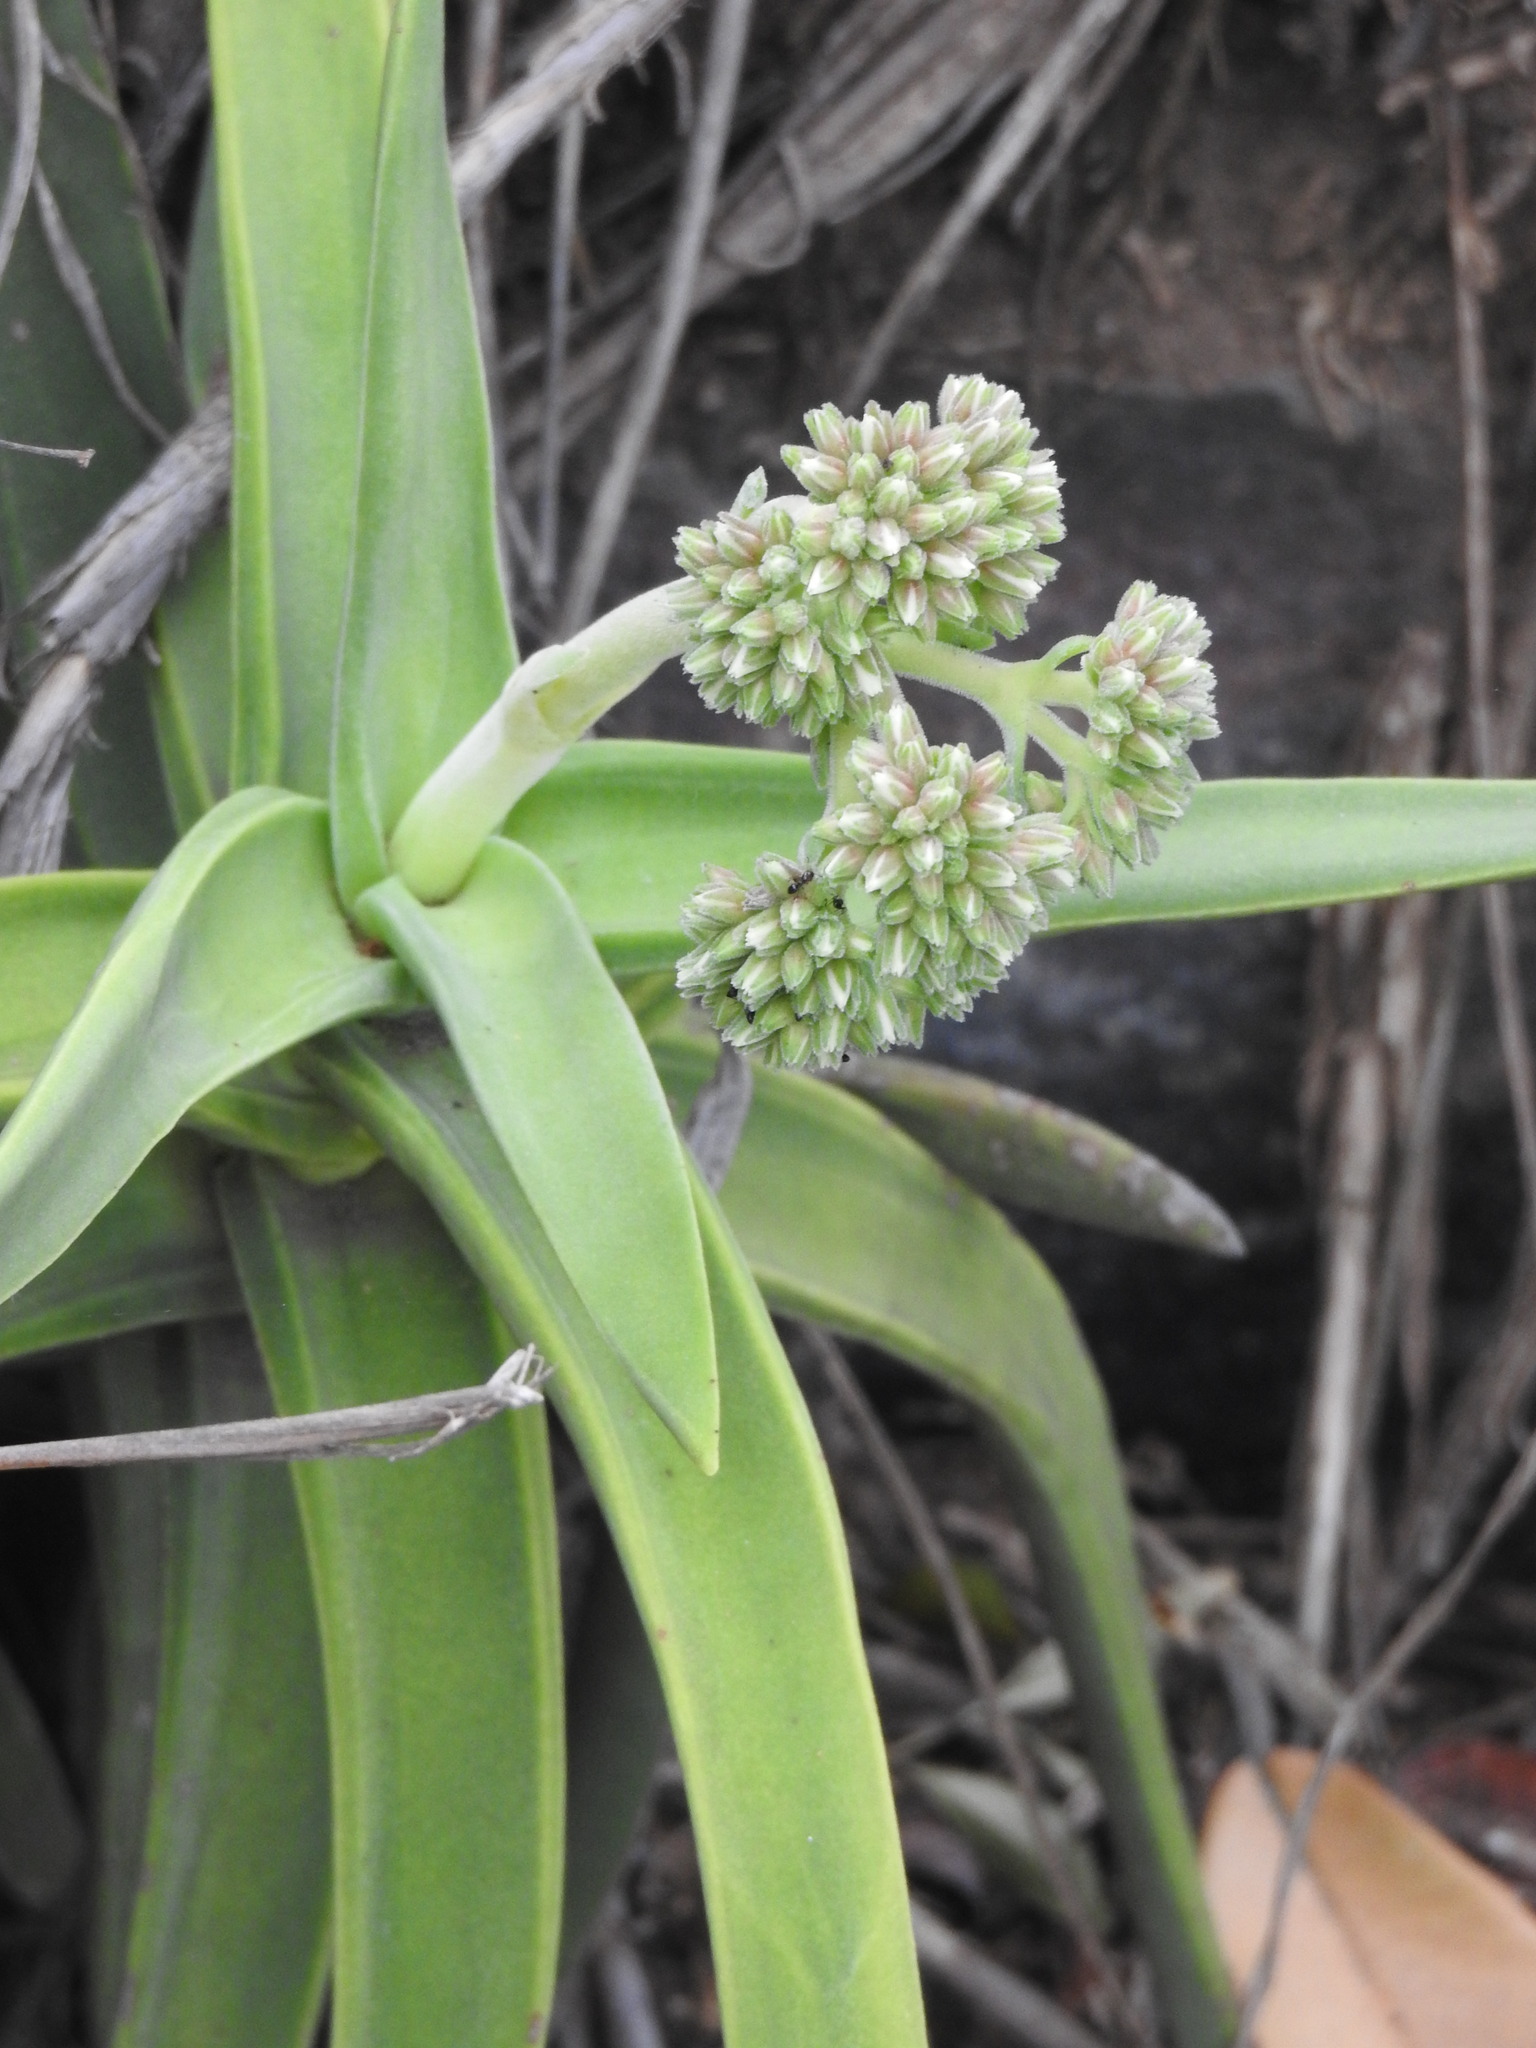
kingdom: Plantae
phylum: Tracheophyta
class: Magnoliopsida
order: Saxifragales
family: Crassulaceae
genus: Crassula
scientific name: Crassula perfoliata
